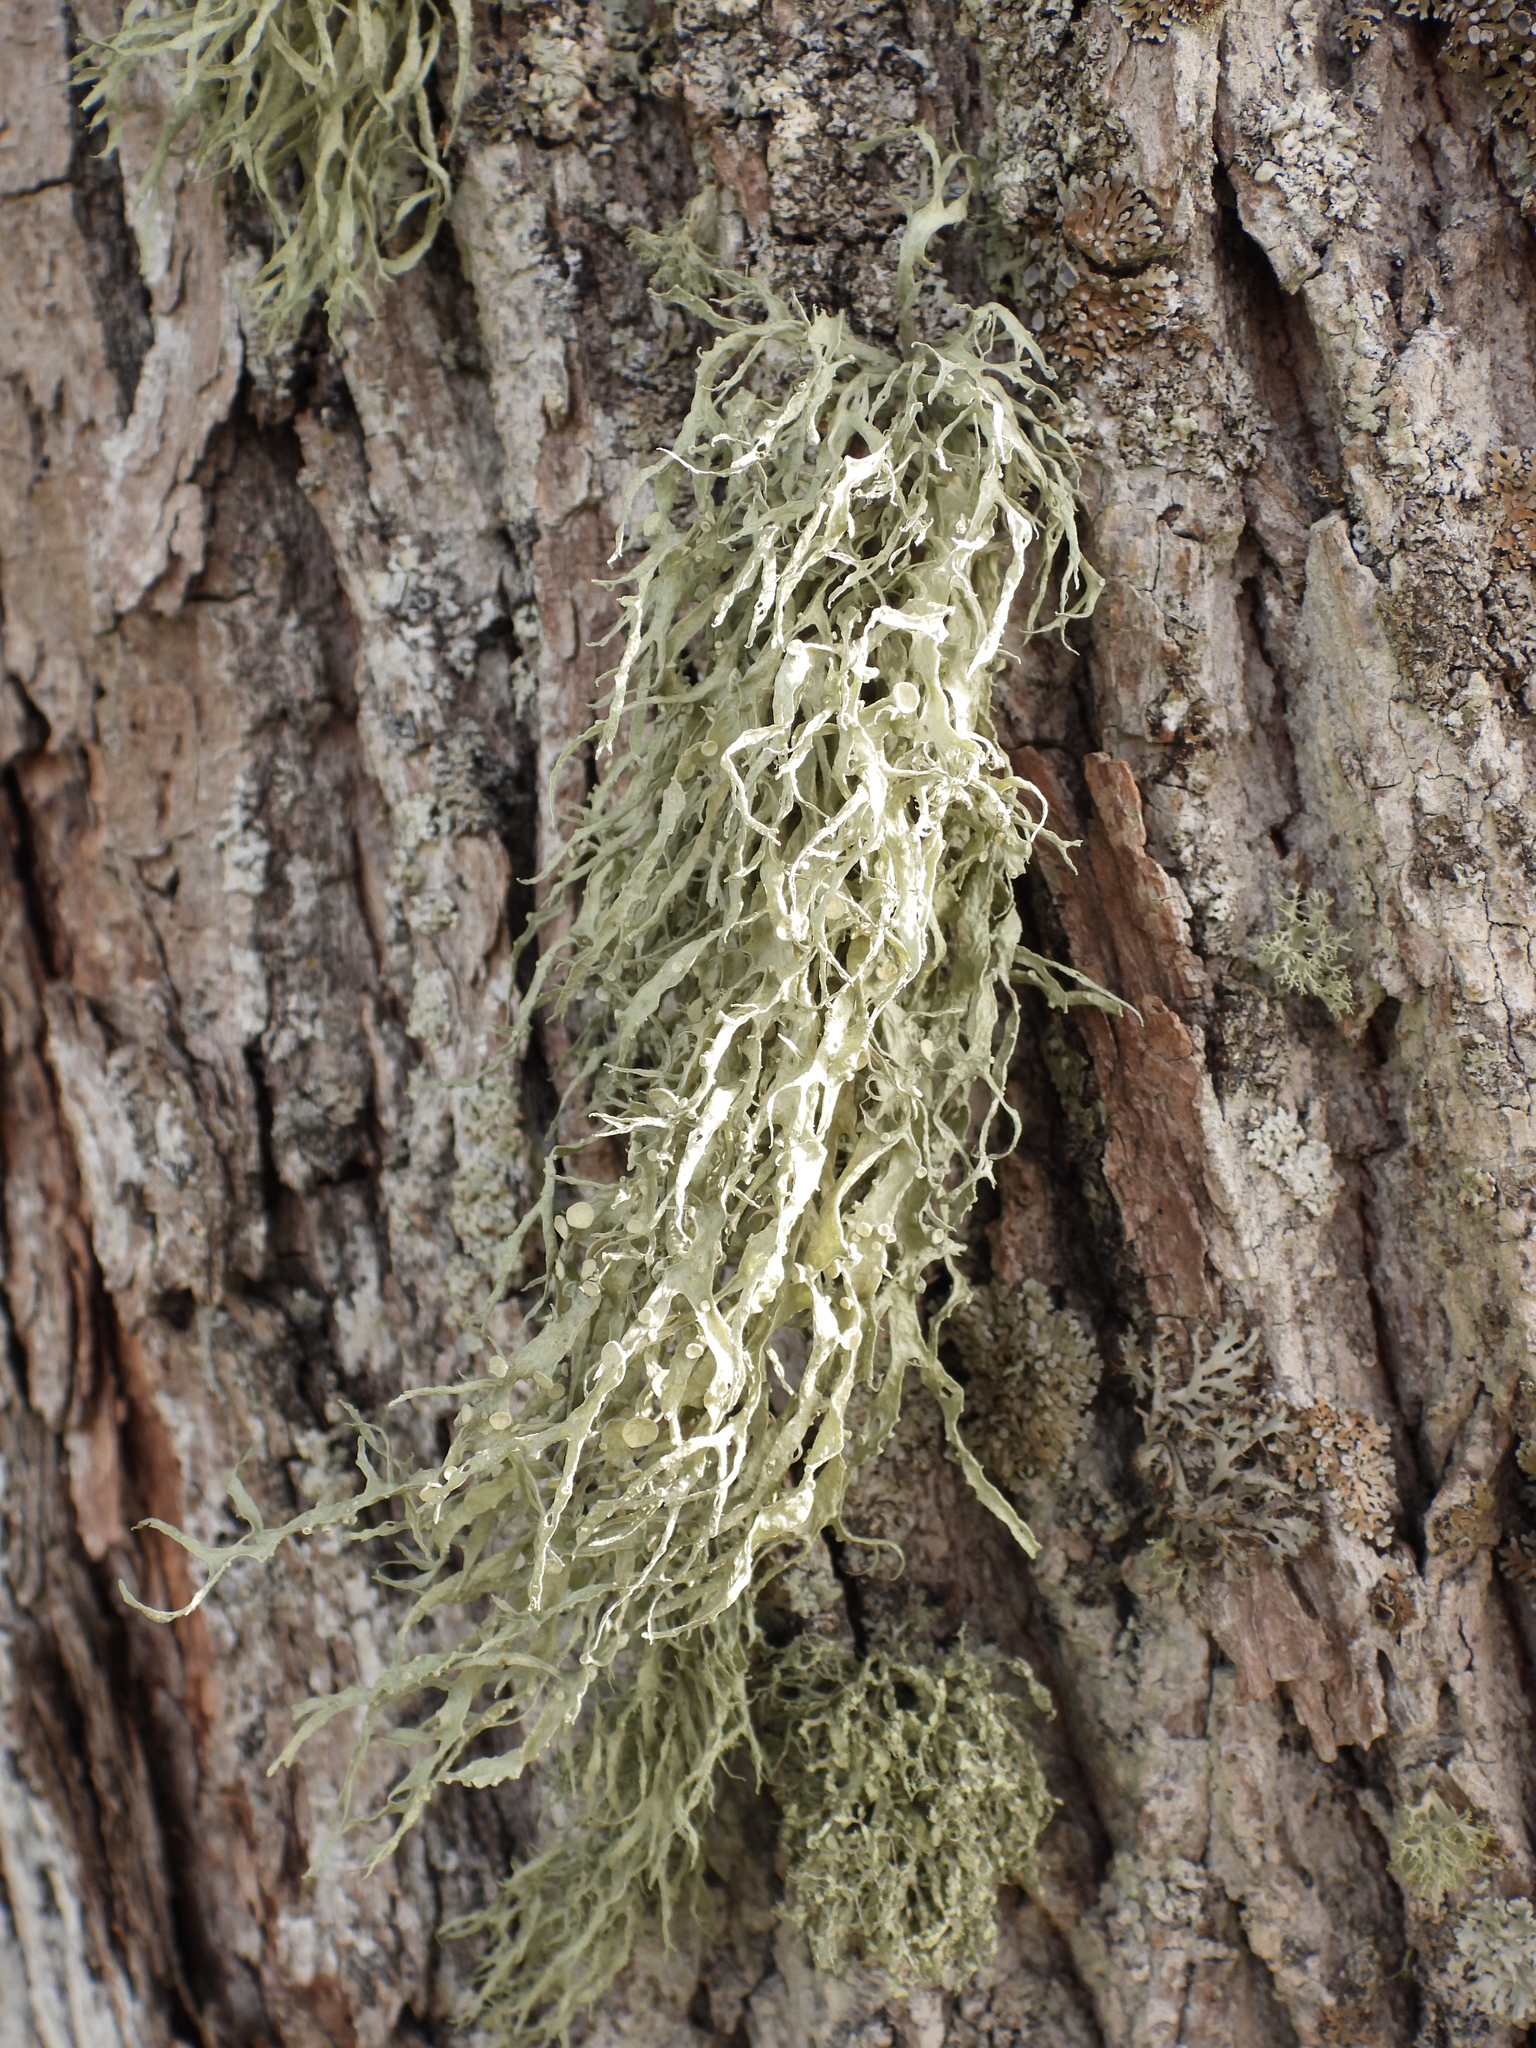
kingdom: Fungi
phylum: Ascomycota
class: Lecanoromycetes
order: Lecanorales
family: Ramalinaceae
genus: Ramalina
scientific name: Ramalina fraxinea
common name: Cartilage lichen
